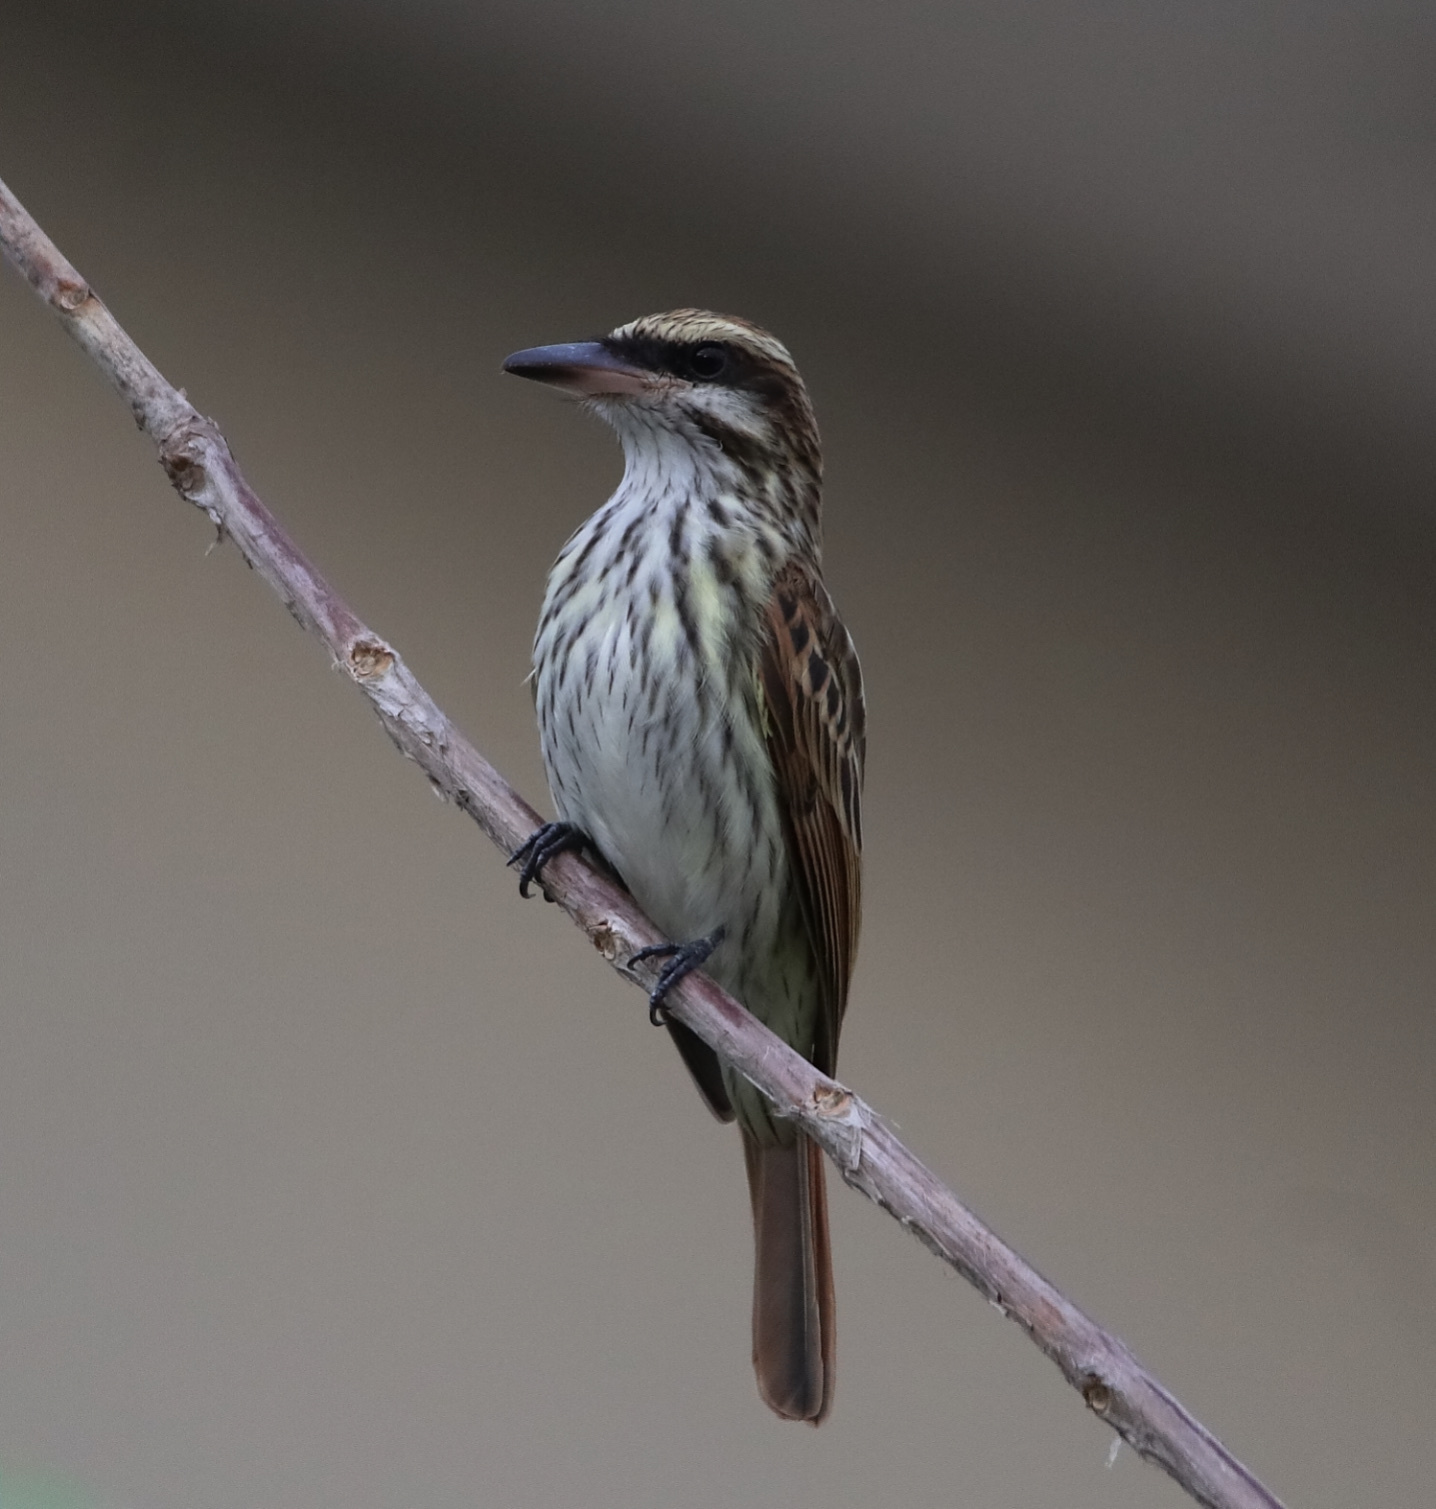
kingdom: Animalia
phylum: Chordata
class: Aves
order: Passeriformes
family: Tyrannidae
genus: Myiodynastes
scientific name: Myiodynastes maculatus
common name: Streaked flycatcher
